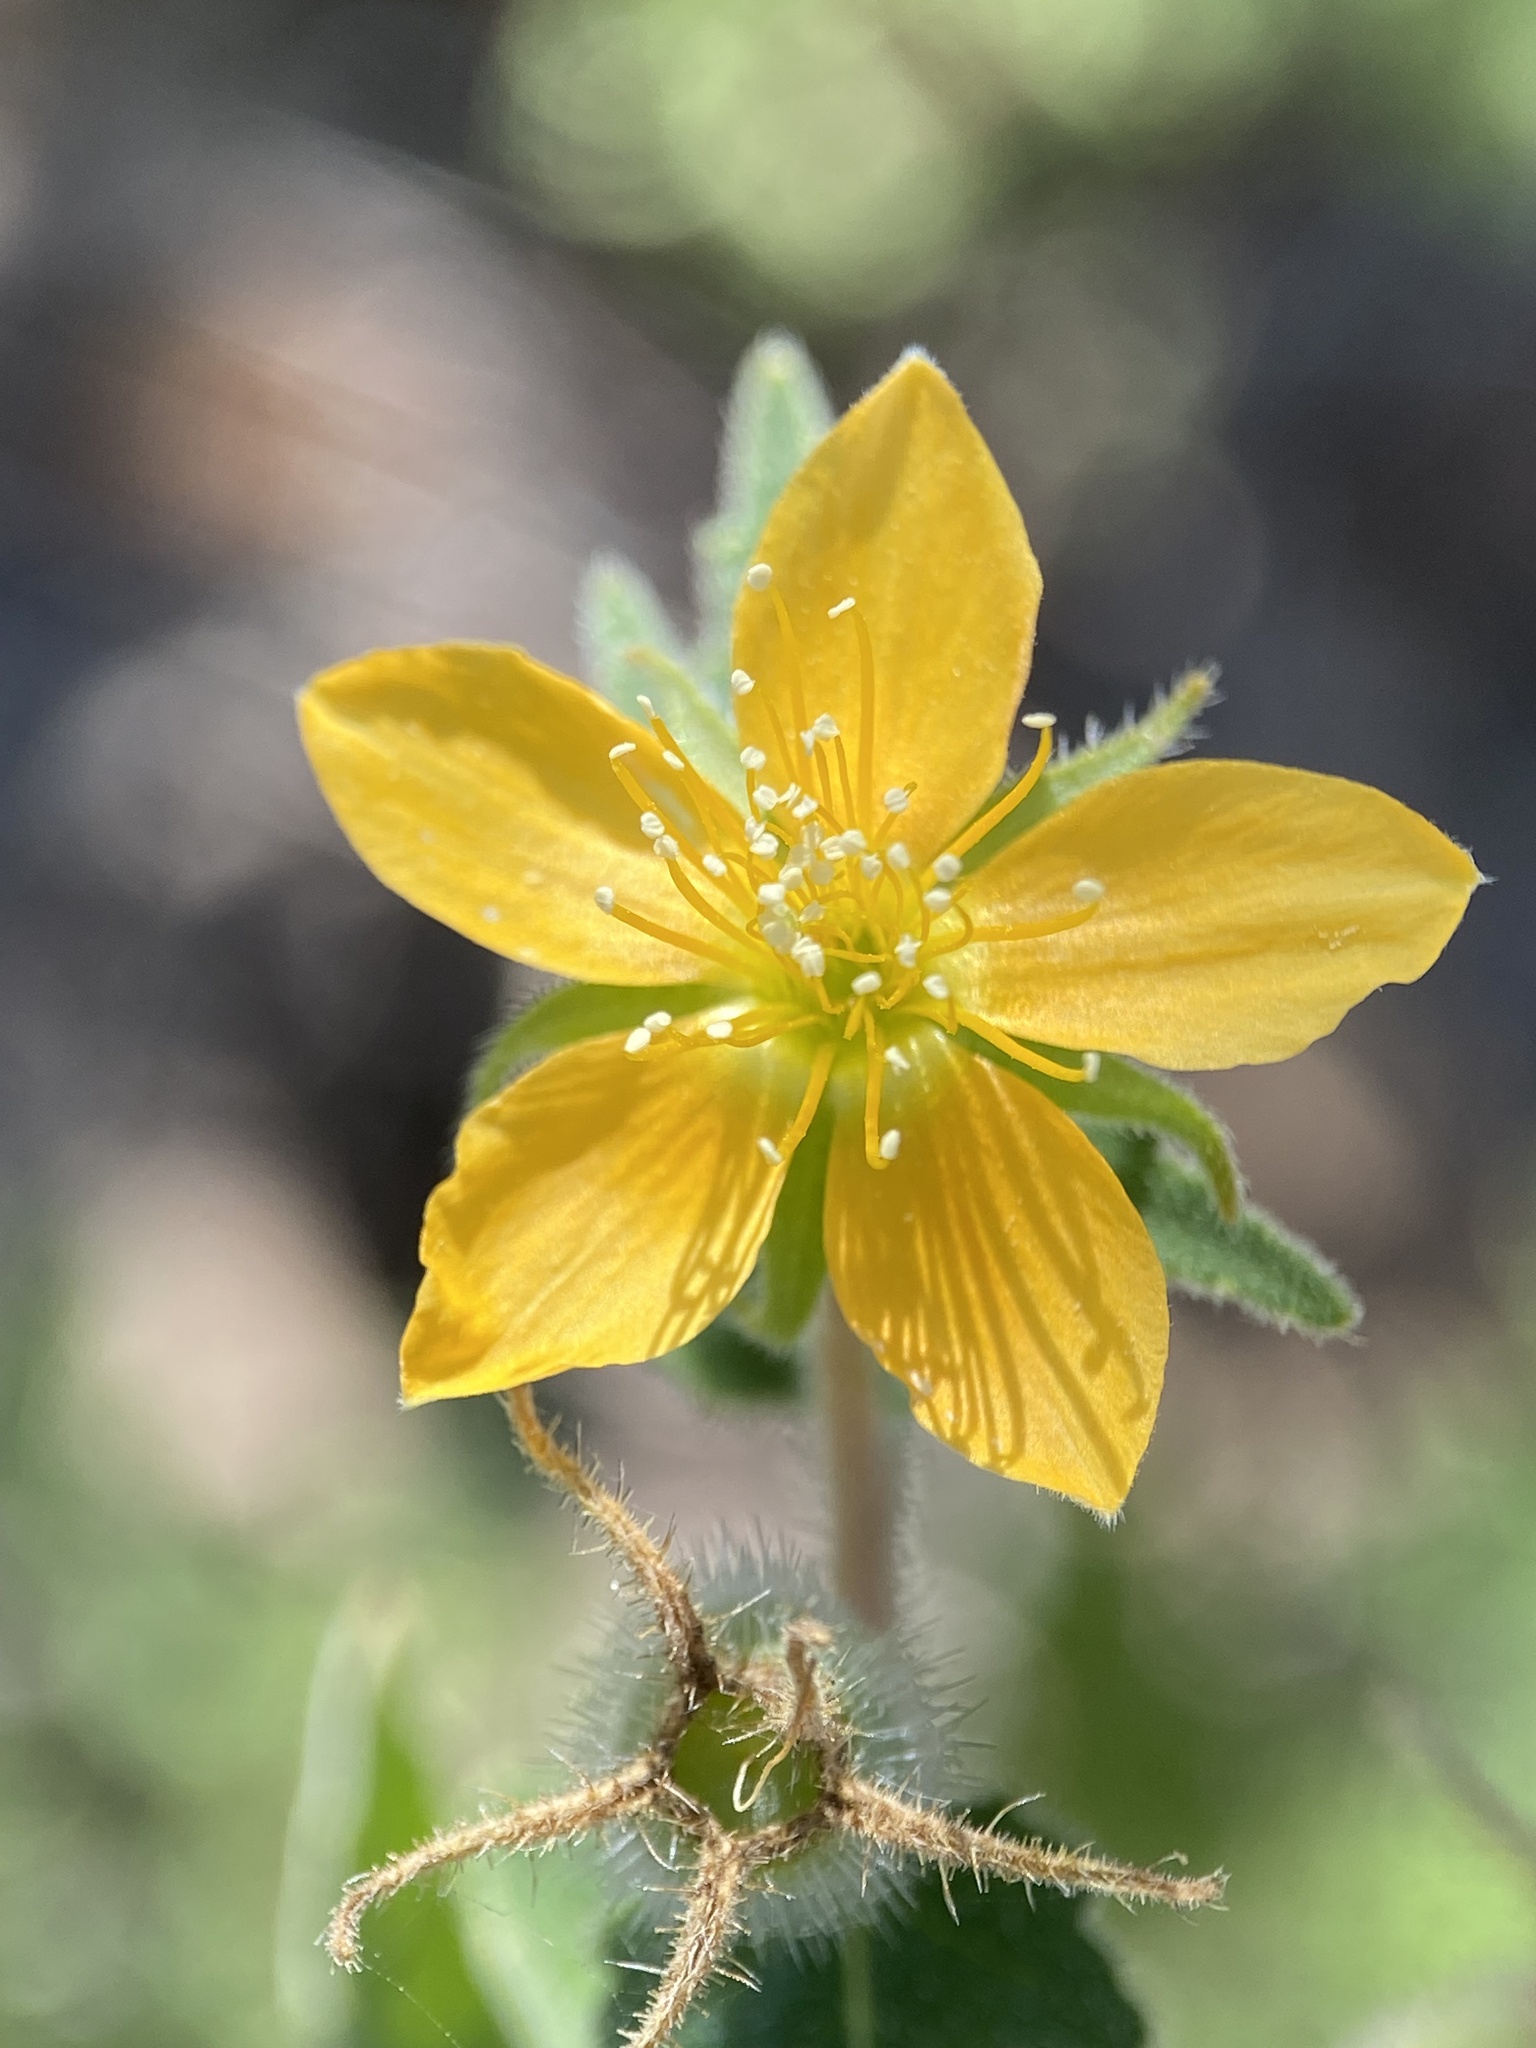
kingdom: Plantae
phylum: Tracheophyta
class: Magnoliopsida
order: Cornales
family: Loasaceae
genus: Mentzelia
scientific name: Mentzelia adhaerens
